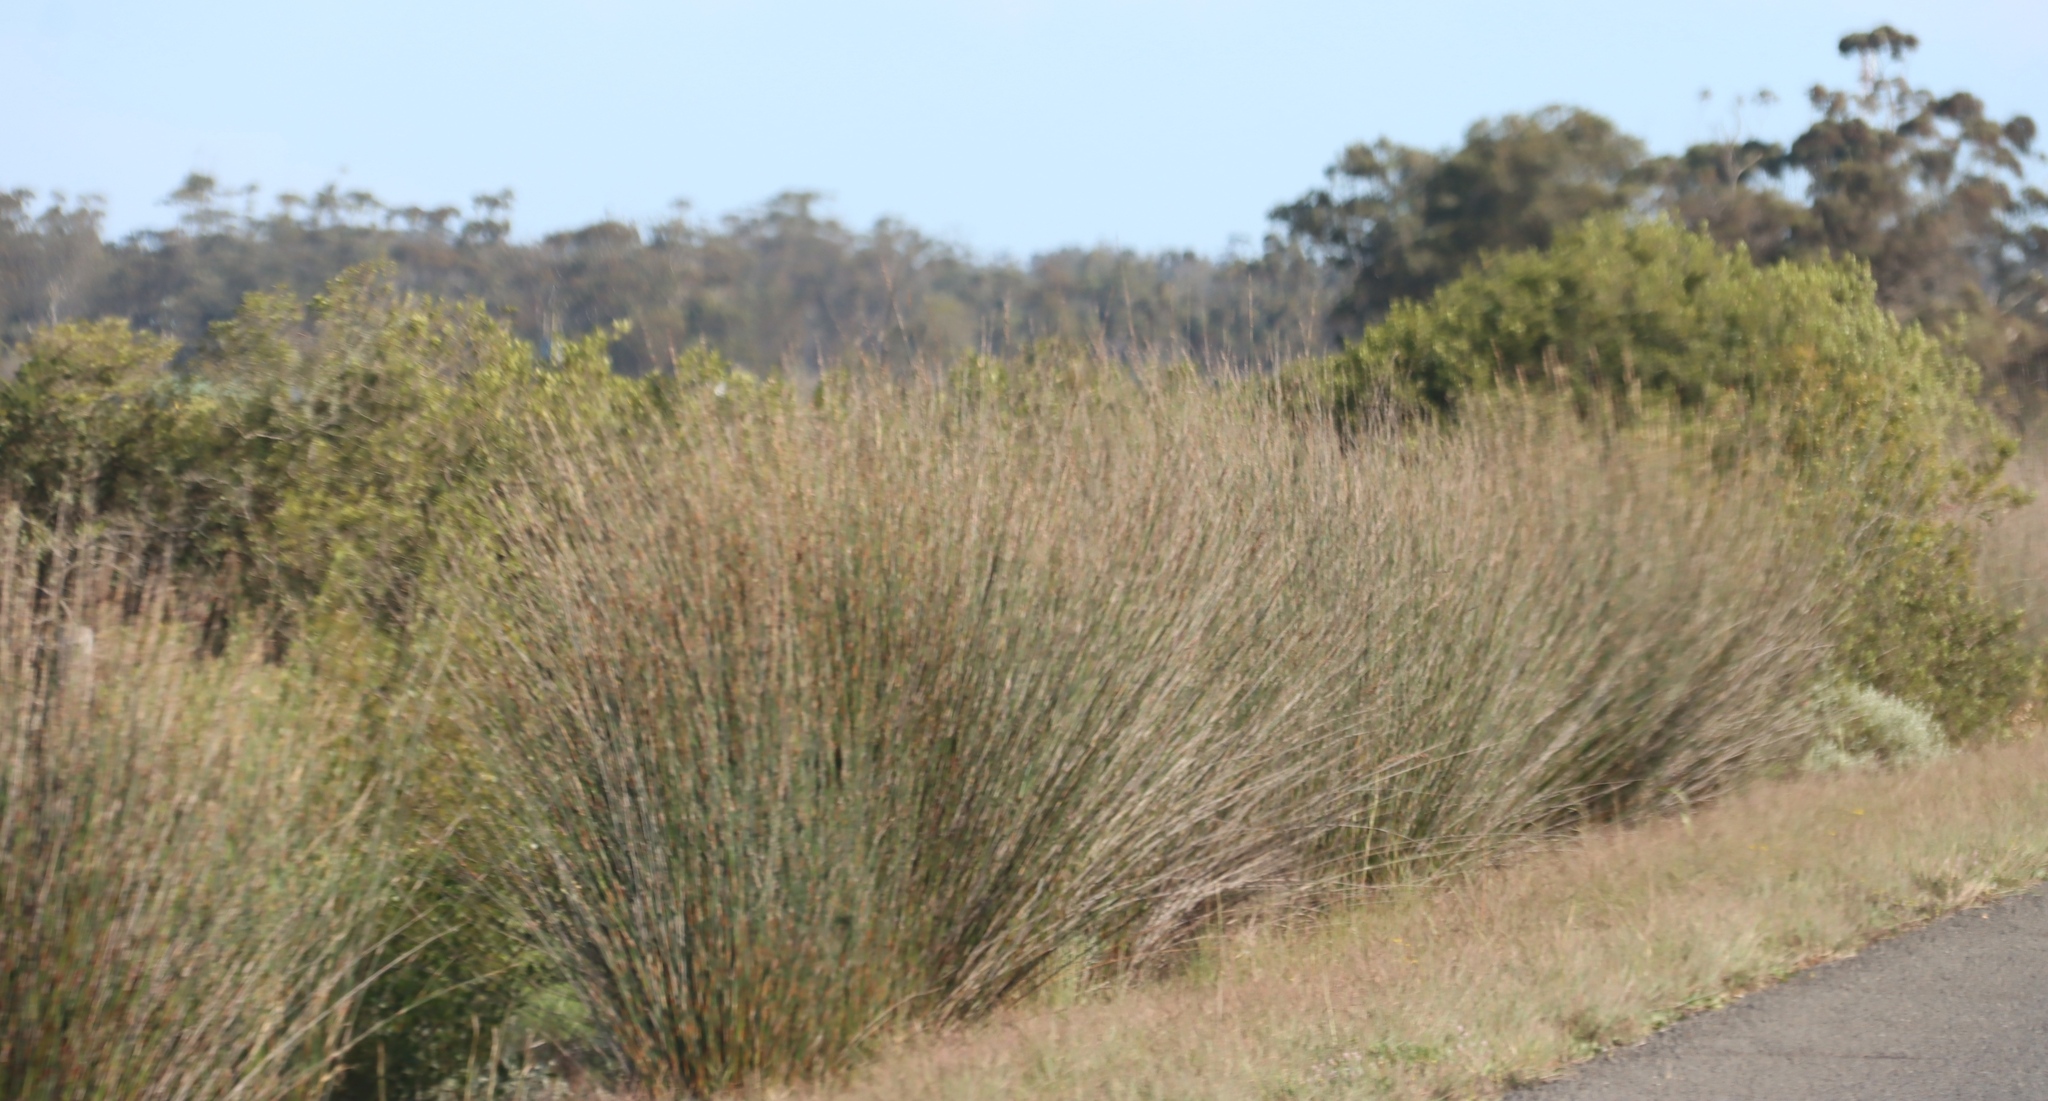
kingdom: Plantae
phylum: Tracheophyta
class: Liliopsida
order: Poales
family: Restionaceae
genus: Thamnochortus
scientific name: Thamnochortus insignis
